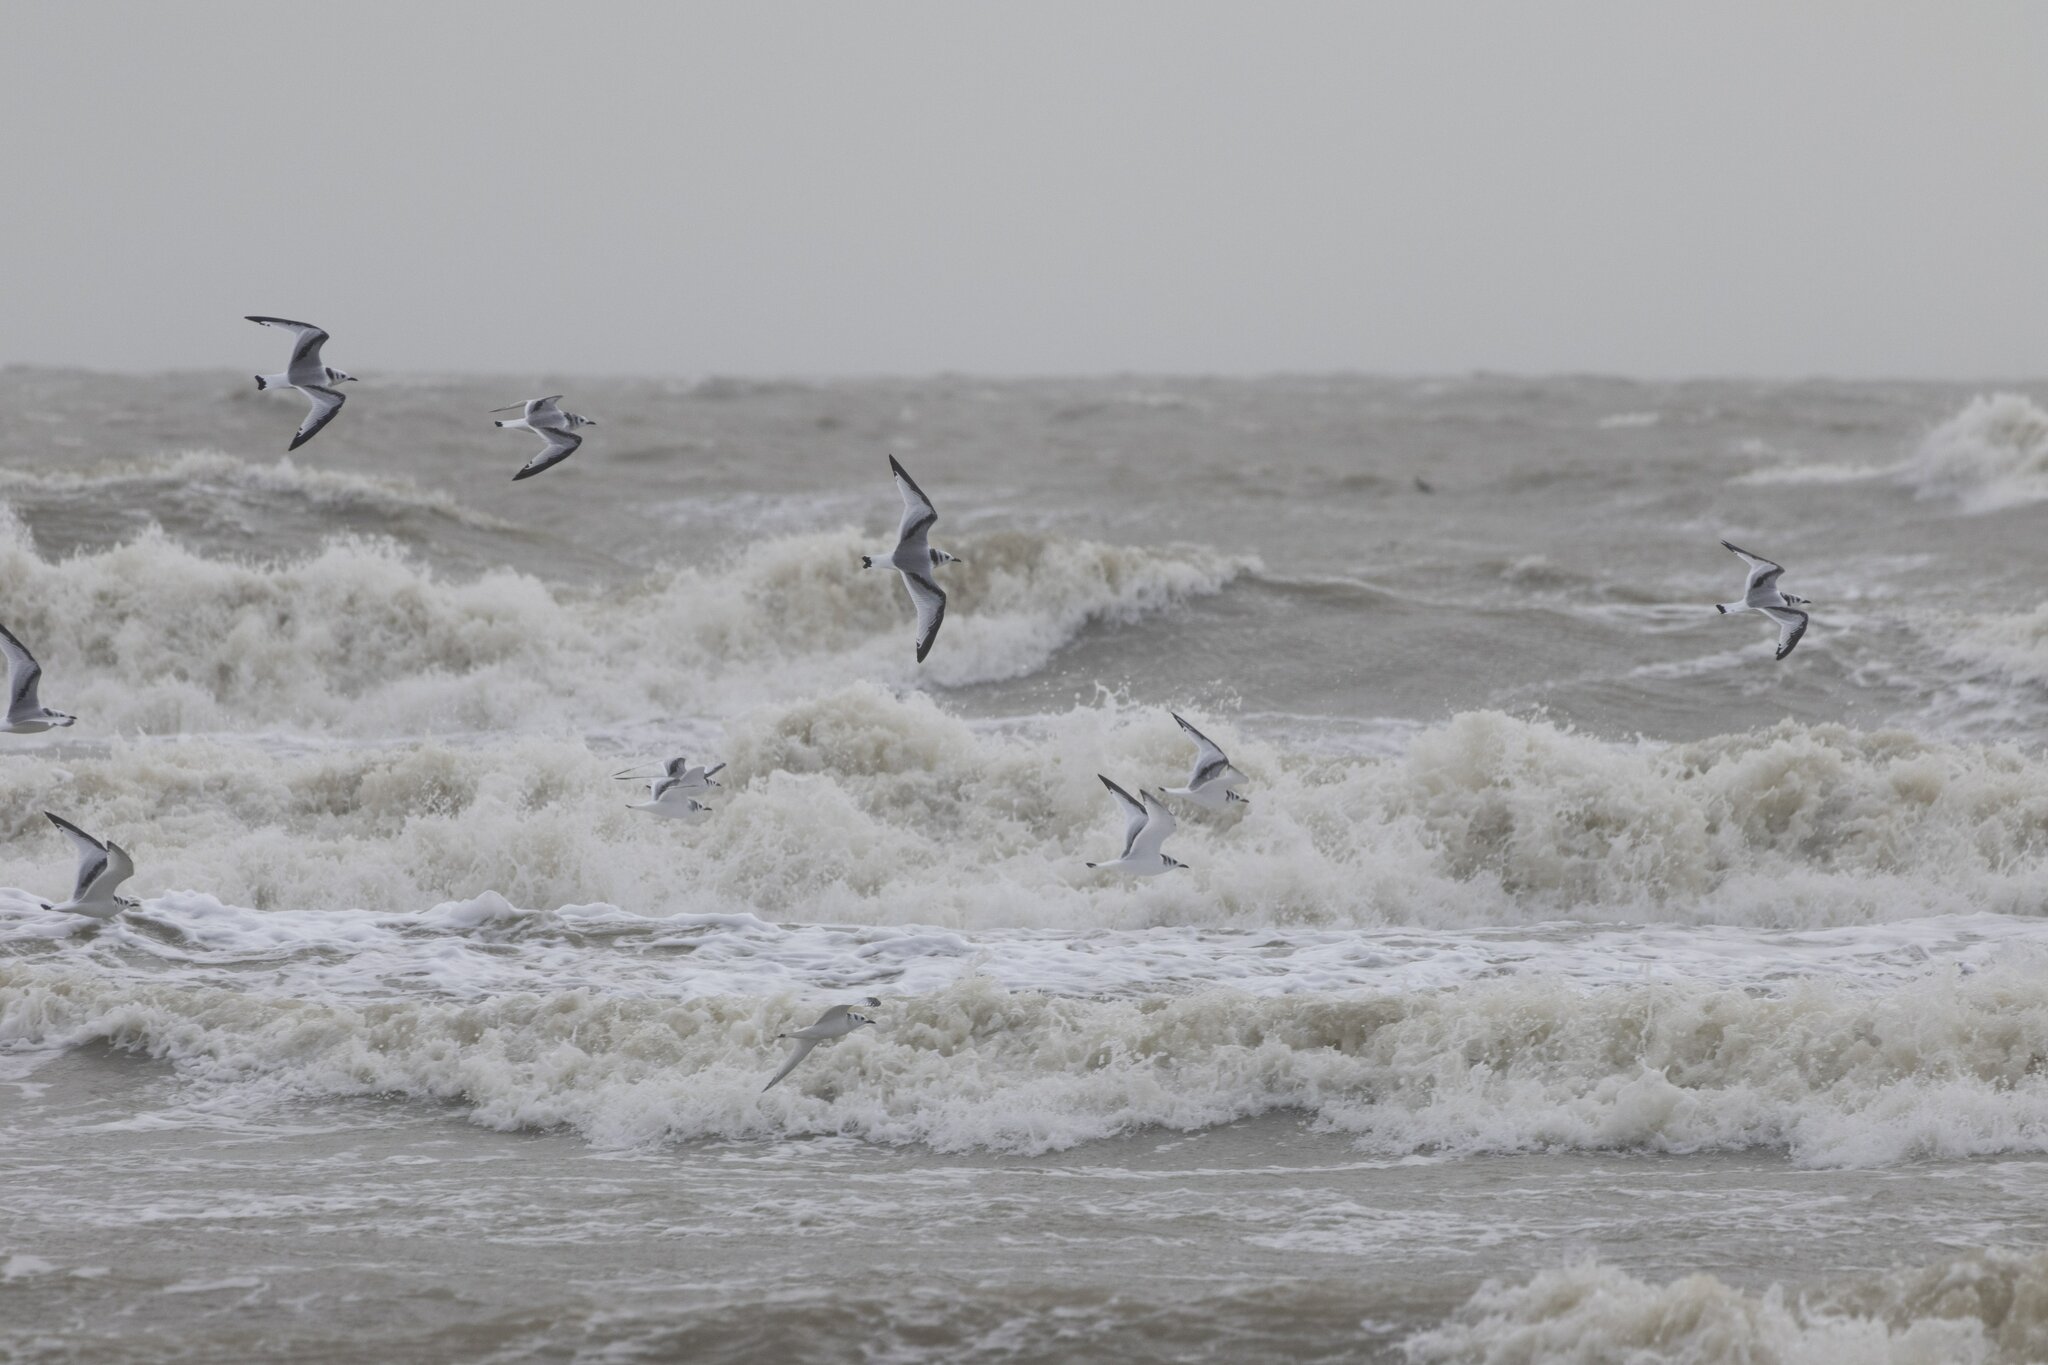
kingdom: Animalia
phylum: Chordata
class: Aves
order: Charadriiformes
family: Laridae
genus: Rissa
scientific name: Rissa tridactyla
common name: Black-legged kittiwake
